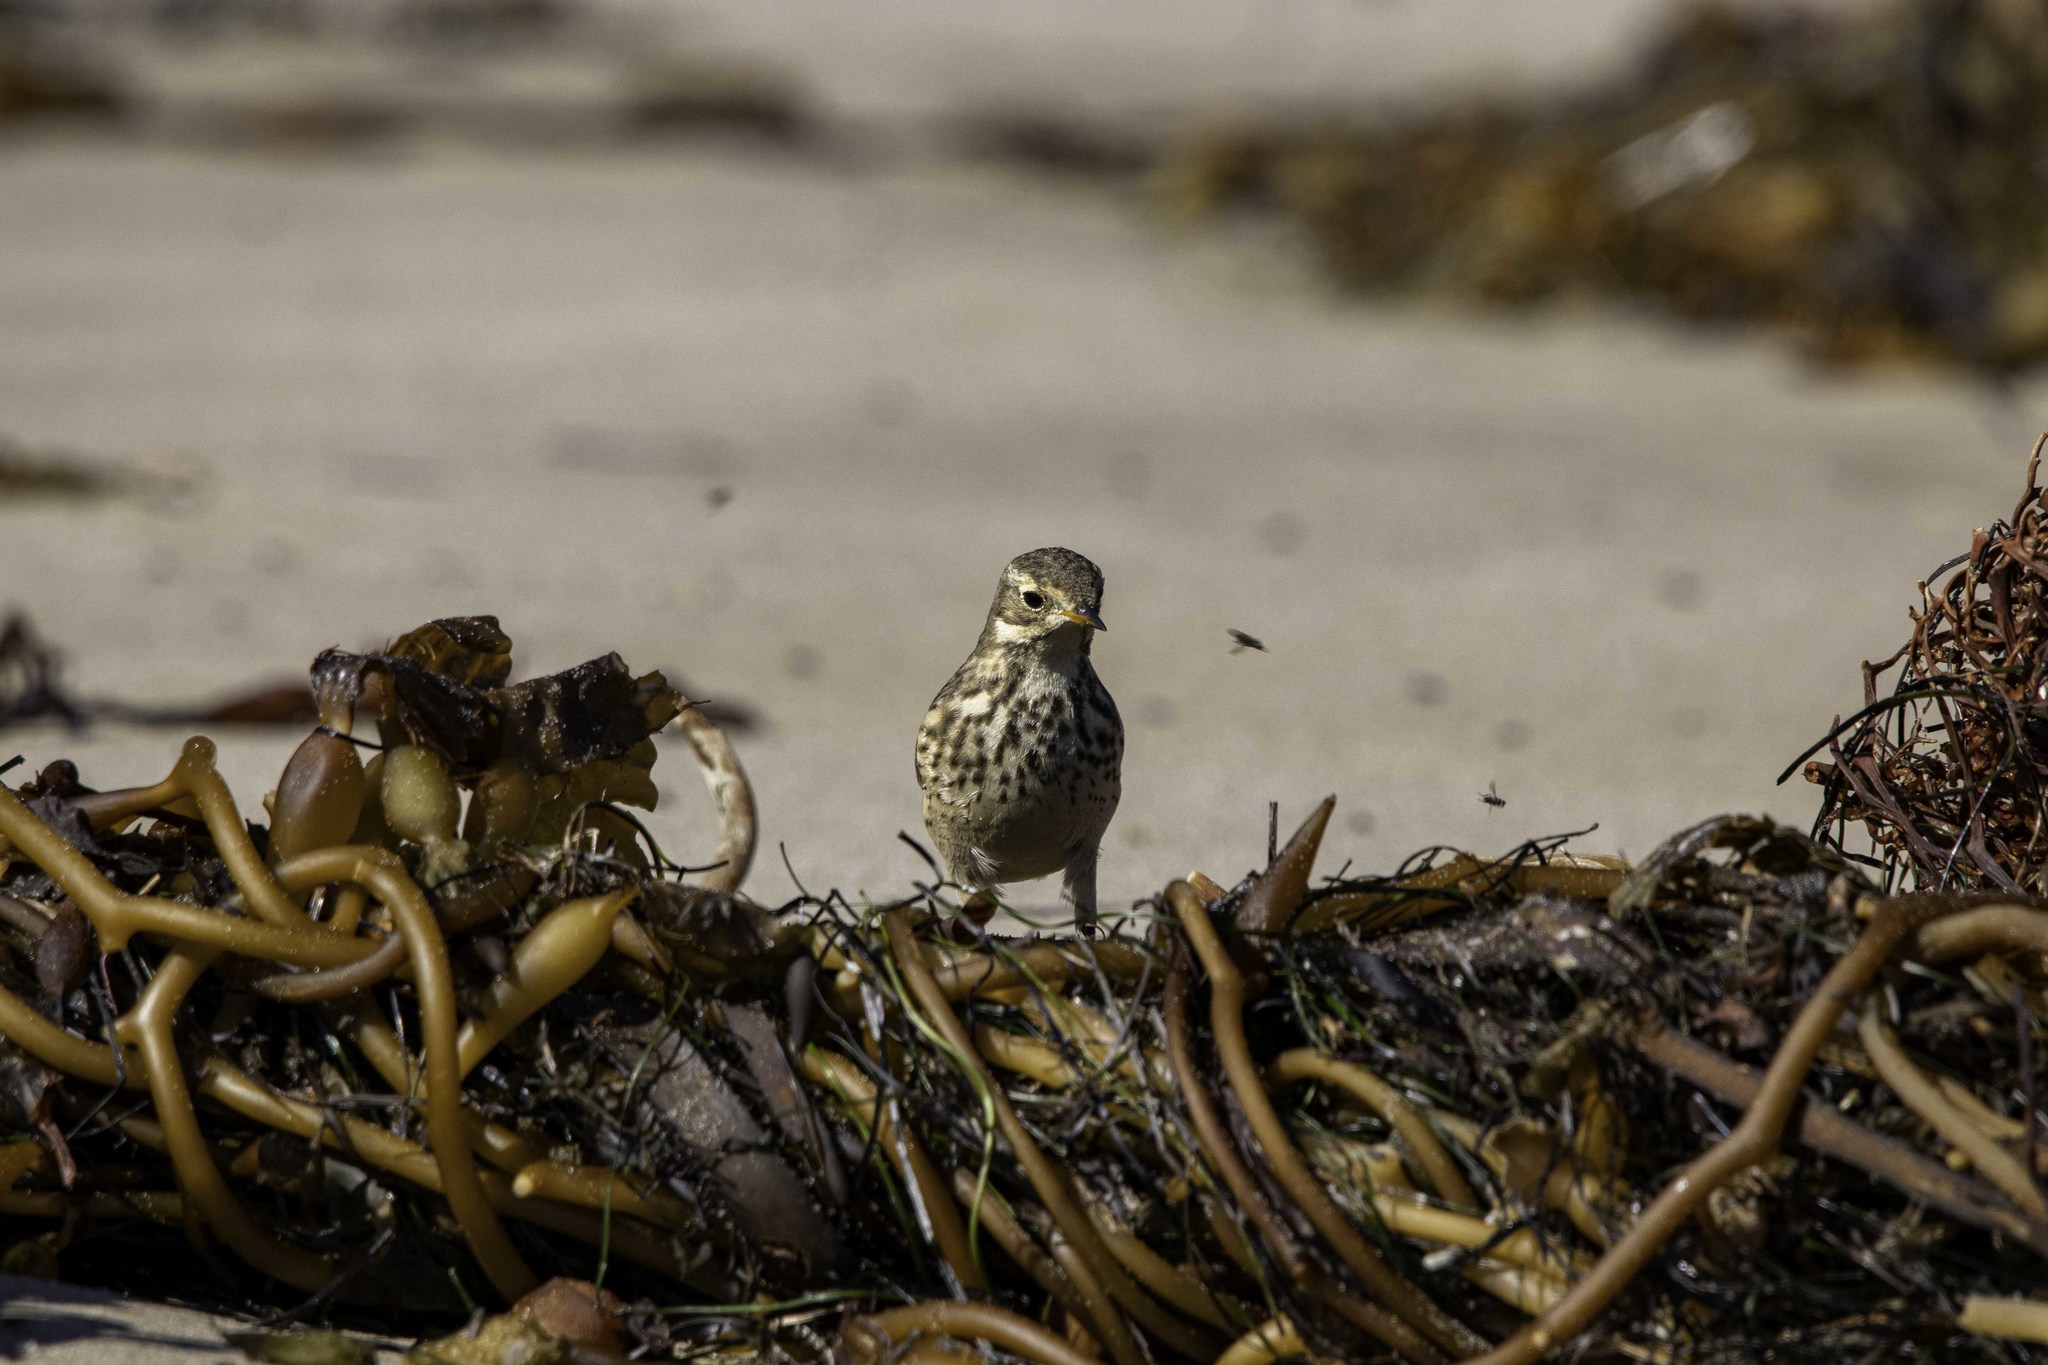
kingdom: Animalia
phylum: Chordata
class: Aves
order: Passeriformes
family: Motacillidae
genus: Anthus
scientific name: Anthus rubescens
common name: Buff-bellied pipit
